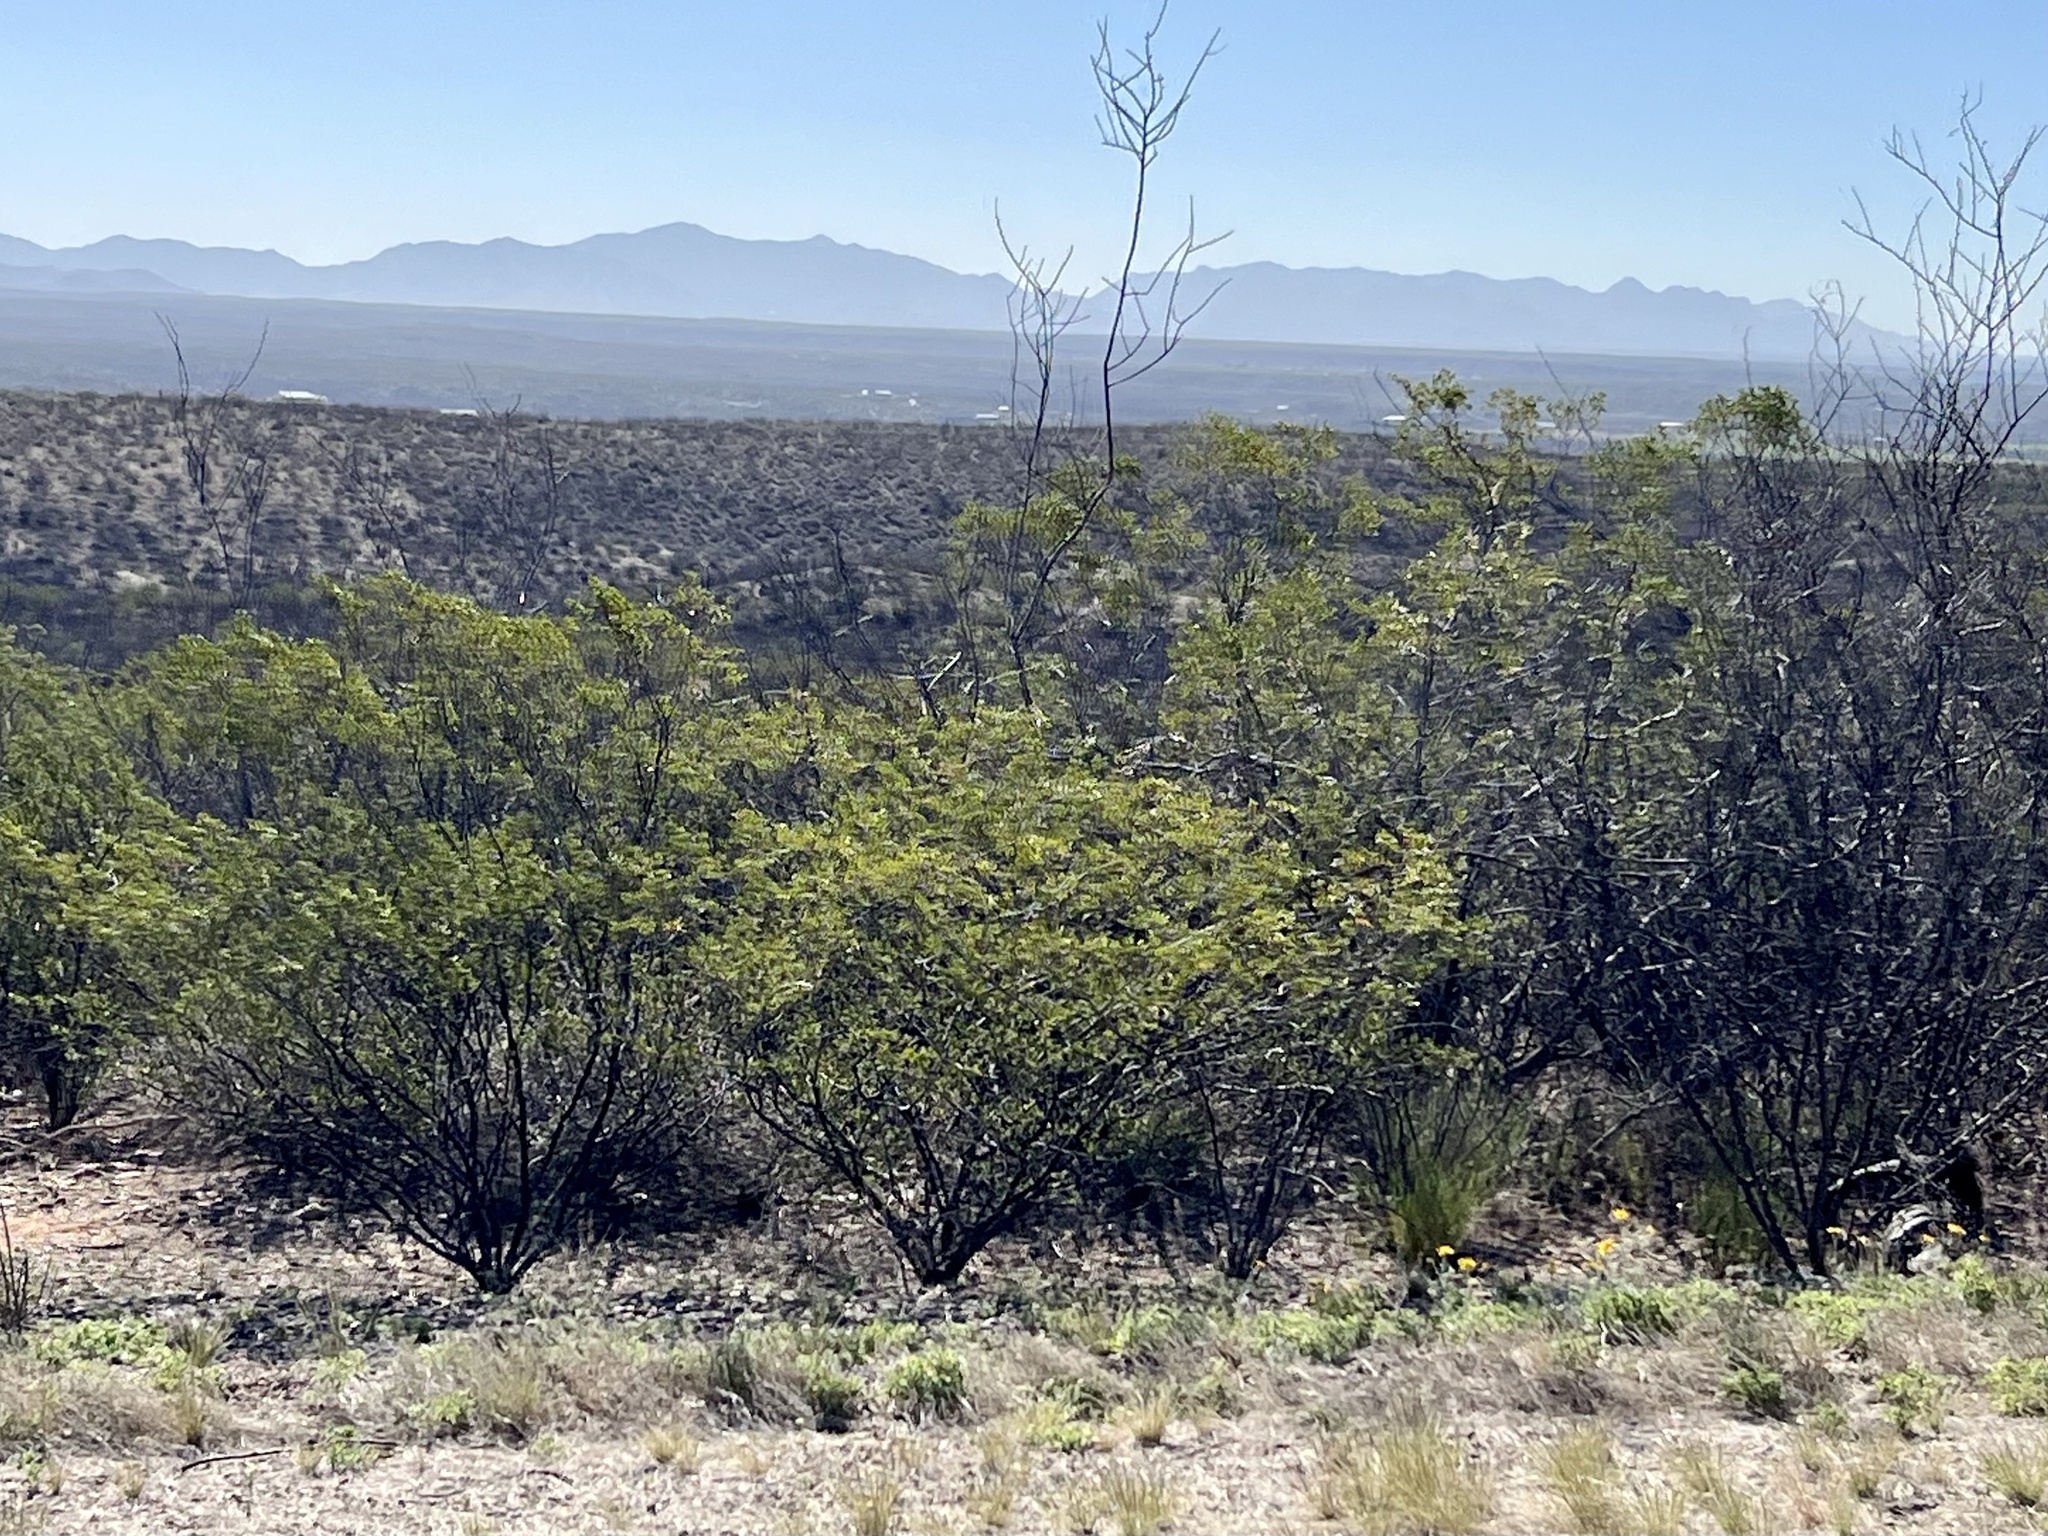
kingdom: Plantae
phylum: Tracheophyta
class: Magnoliopsida
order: Zygophyllales
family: Zygophyllaceae
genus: Larrea
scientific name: Larrea tridentata
